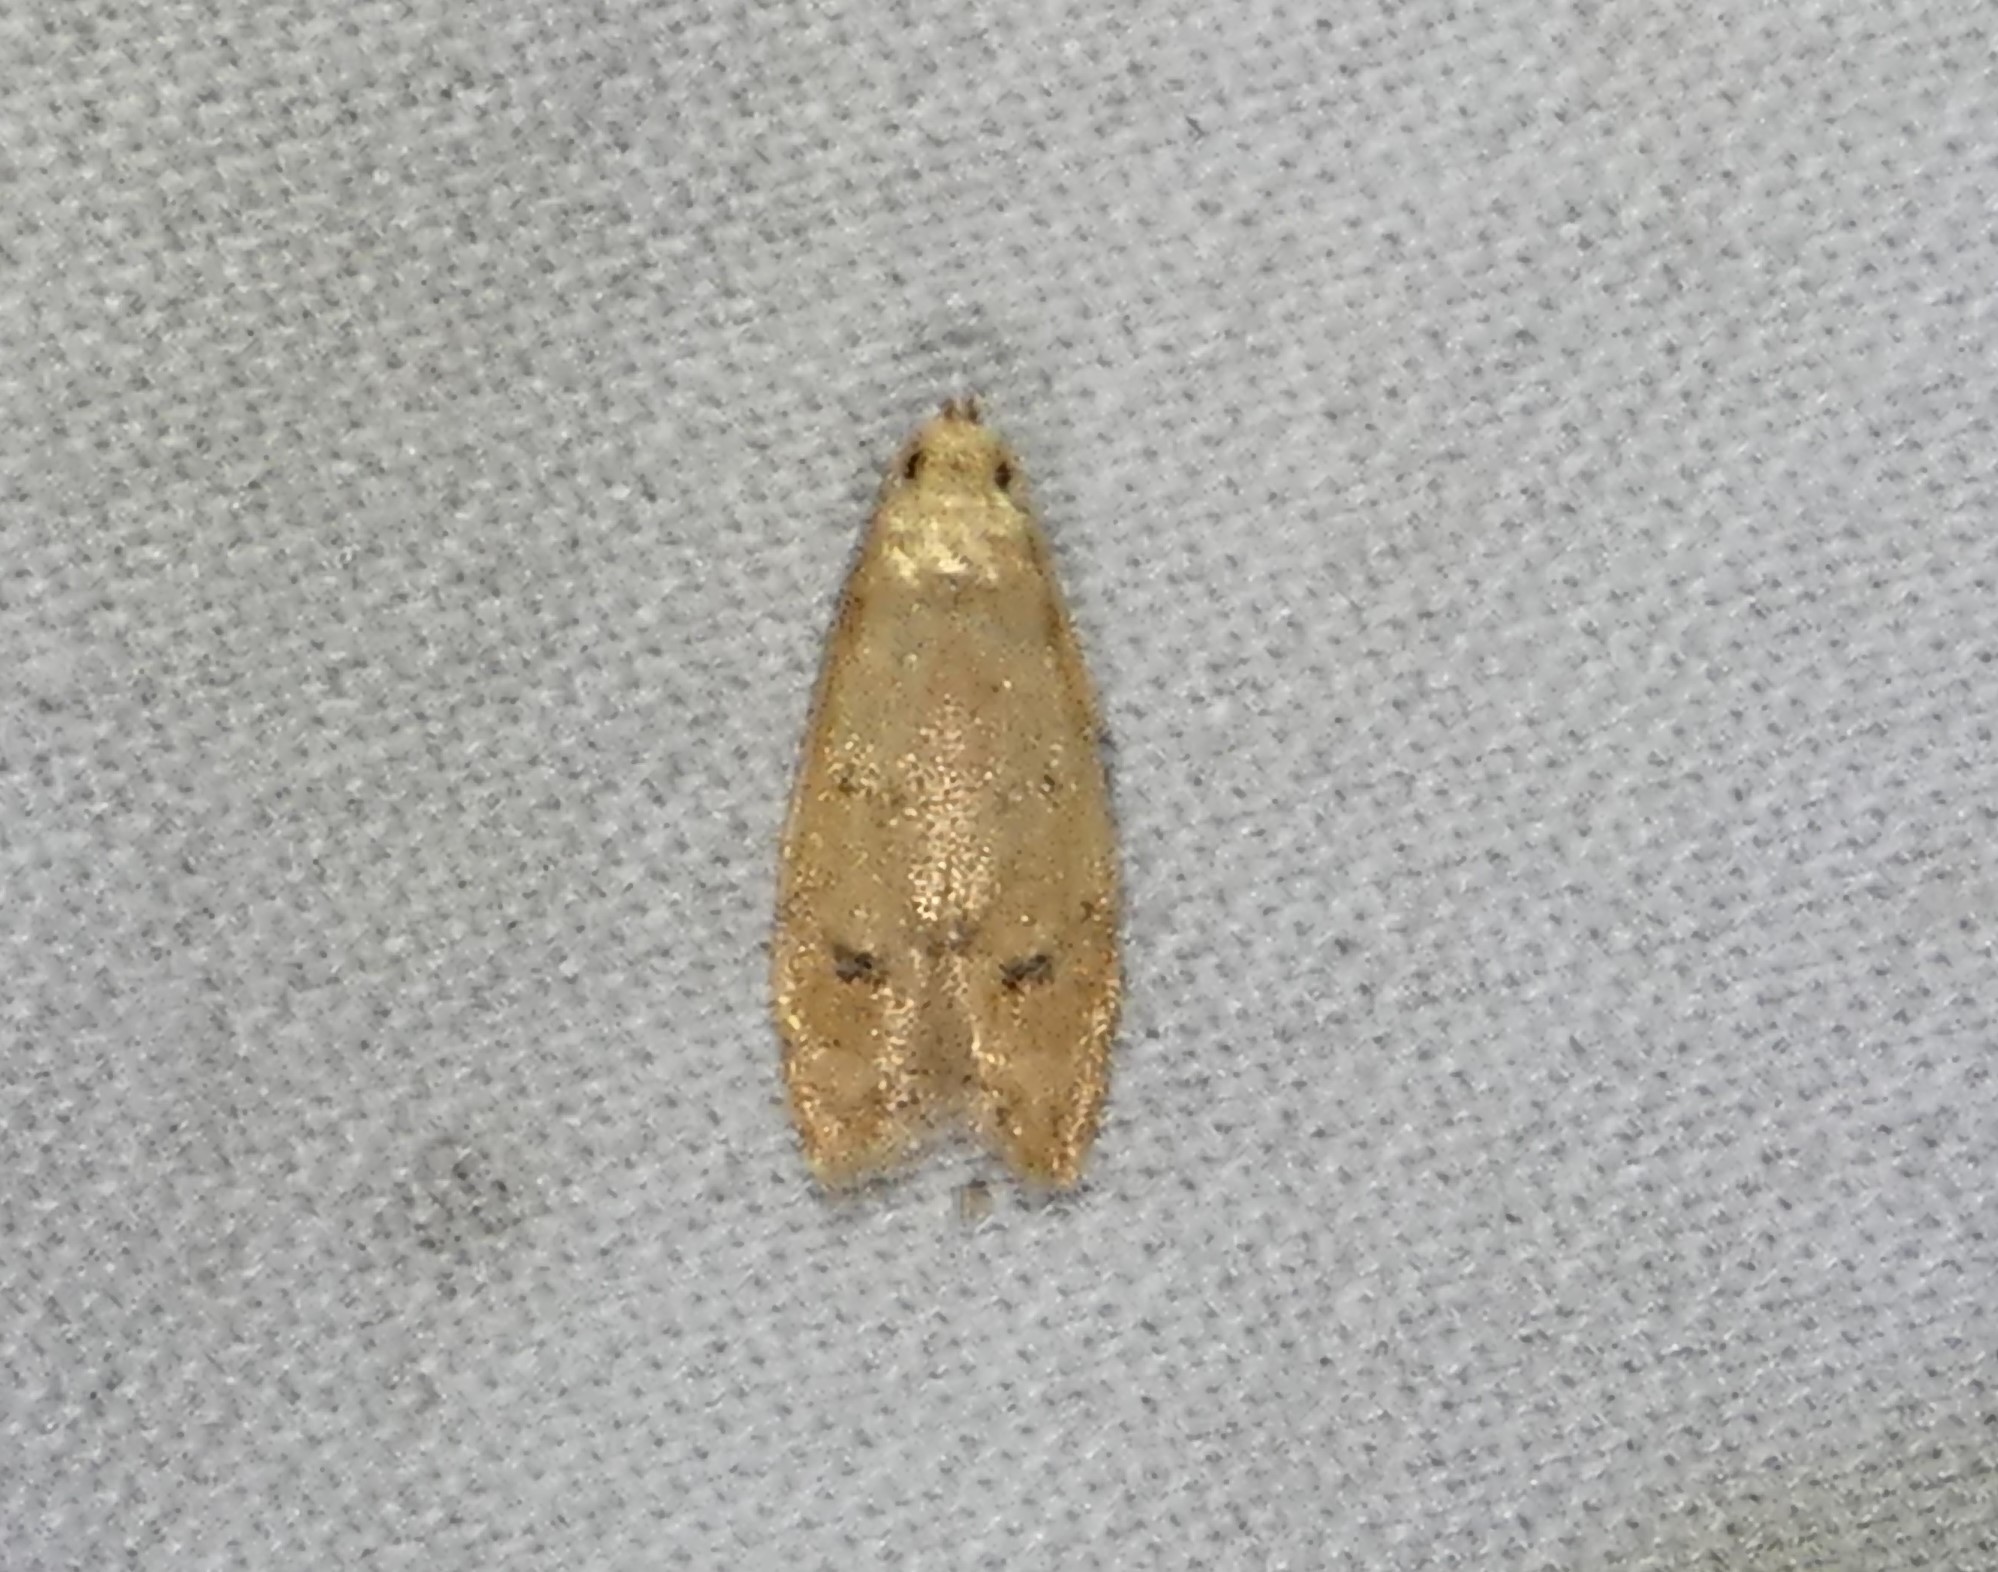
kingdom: Animalia
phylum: Arthropoda
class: Insecta
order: Lepidoptera
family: Autostichidae
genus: Gerdana
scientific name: Gerdana caritella
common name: Gerdana moth
